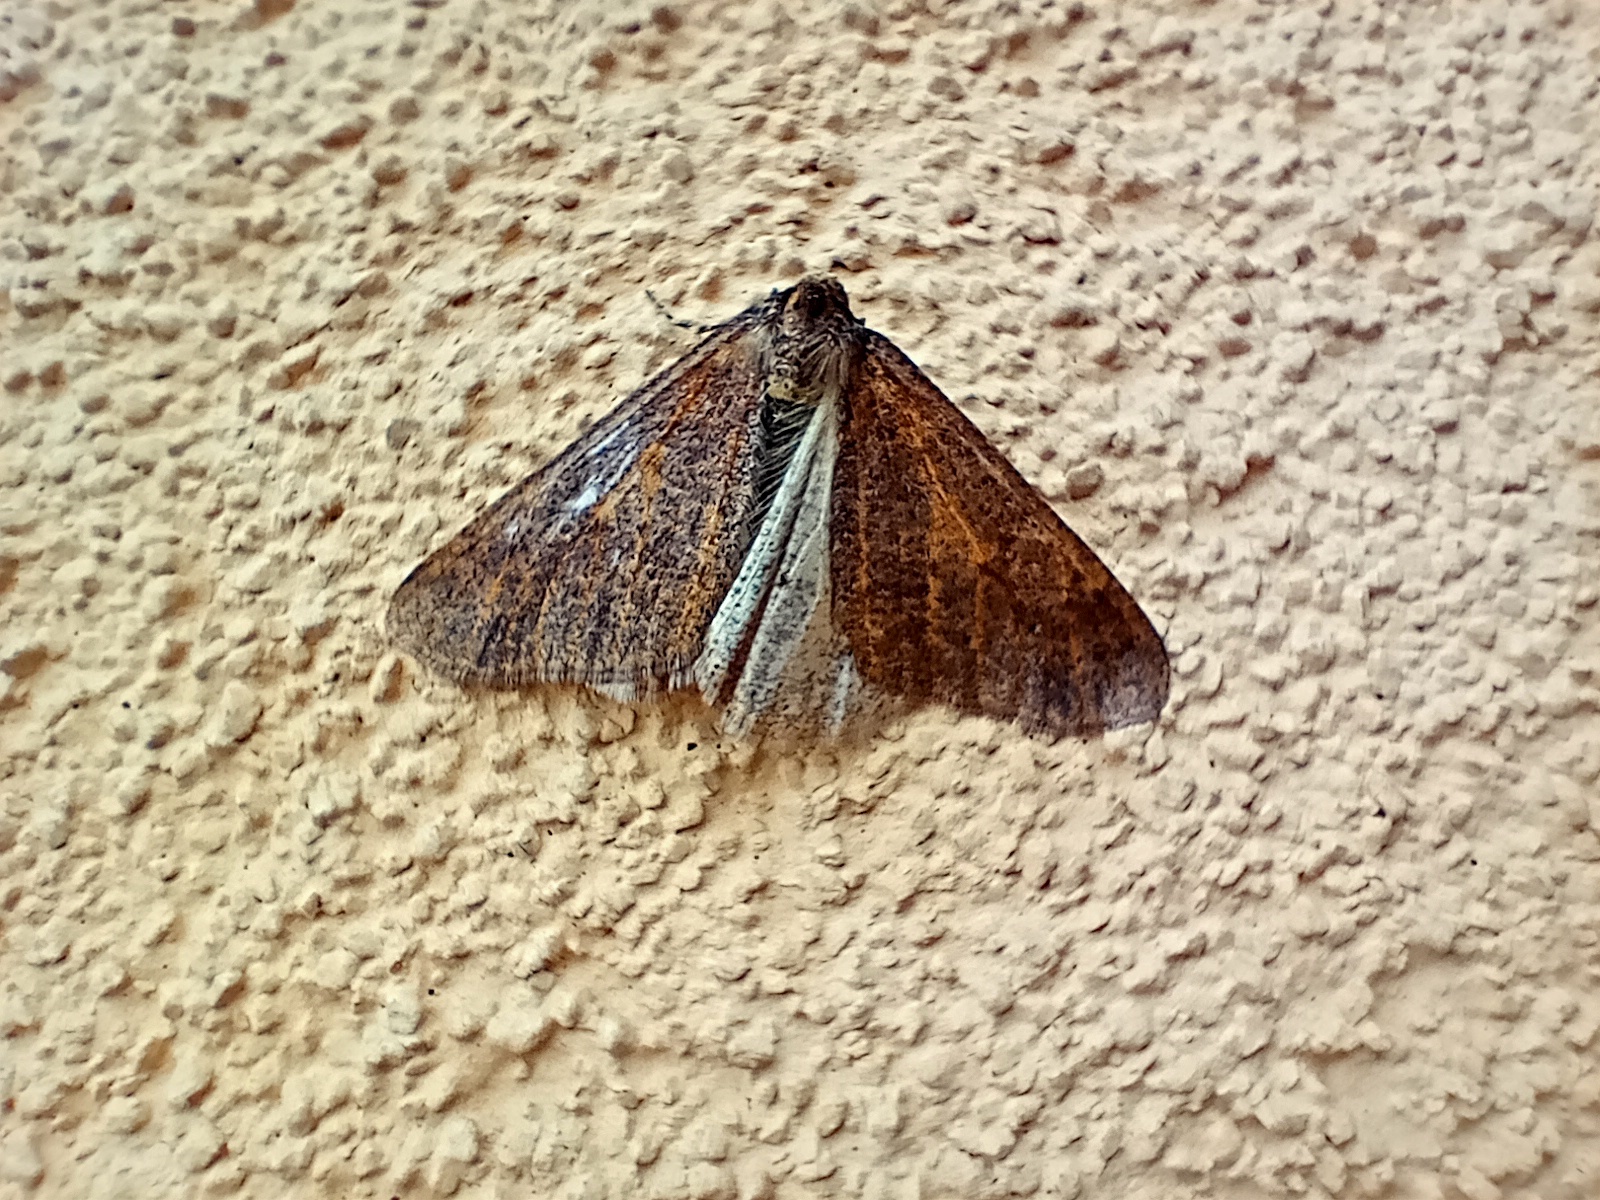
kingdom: Animalia
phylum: Arthropoda
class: Insecta
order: Lepidoptera
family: Geometridae
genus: Erannis
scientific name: Erannis defoliaria
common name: Mottled umber
